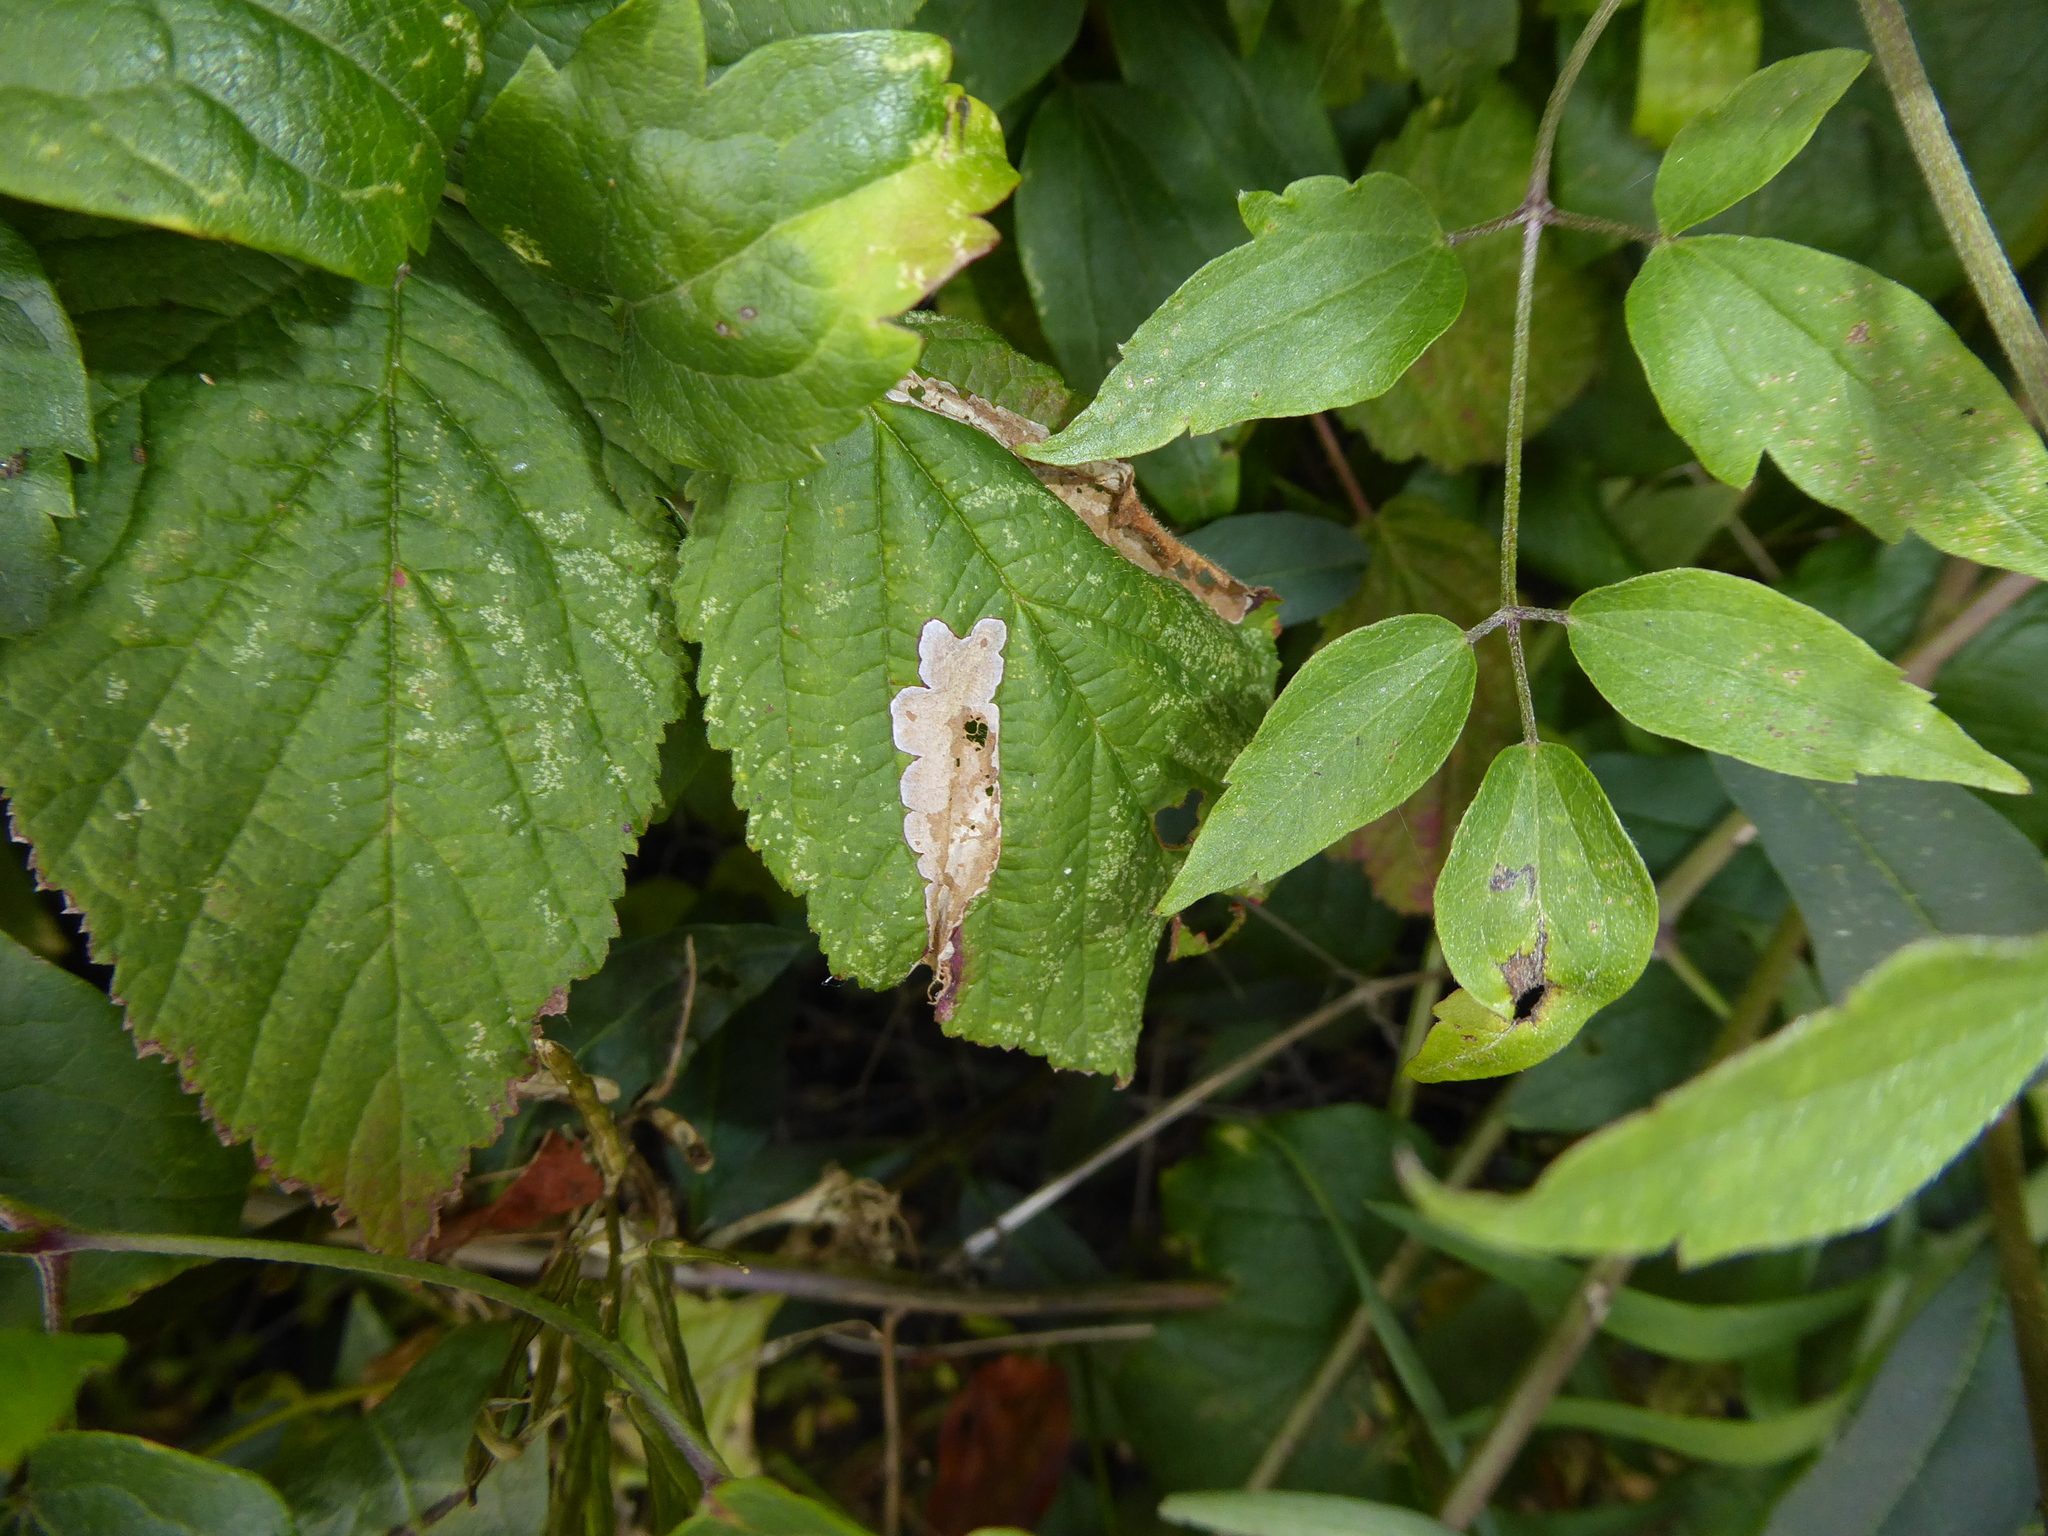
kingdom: Animalia
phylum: Arthropoda
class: Insecta
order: Lepidoptera
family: Tischeriidae
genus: Coptotriche
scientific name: Coptotriche marginea
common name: Bordered carl
